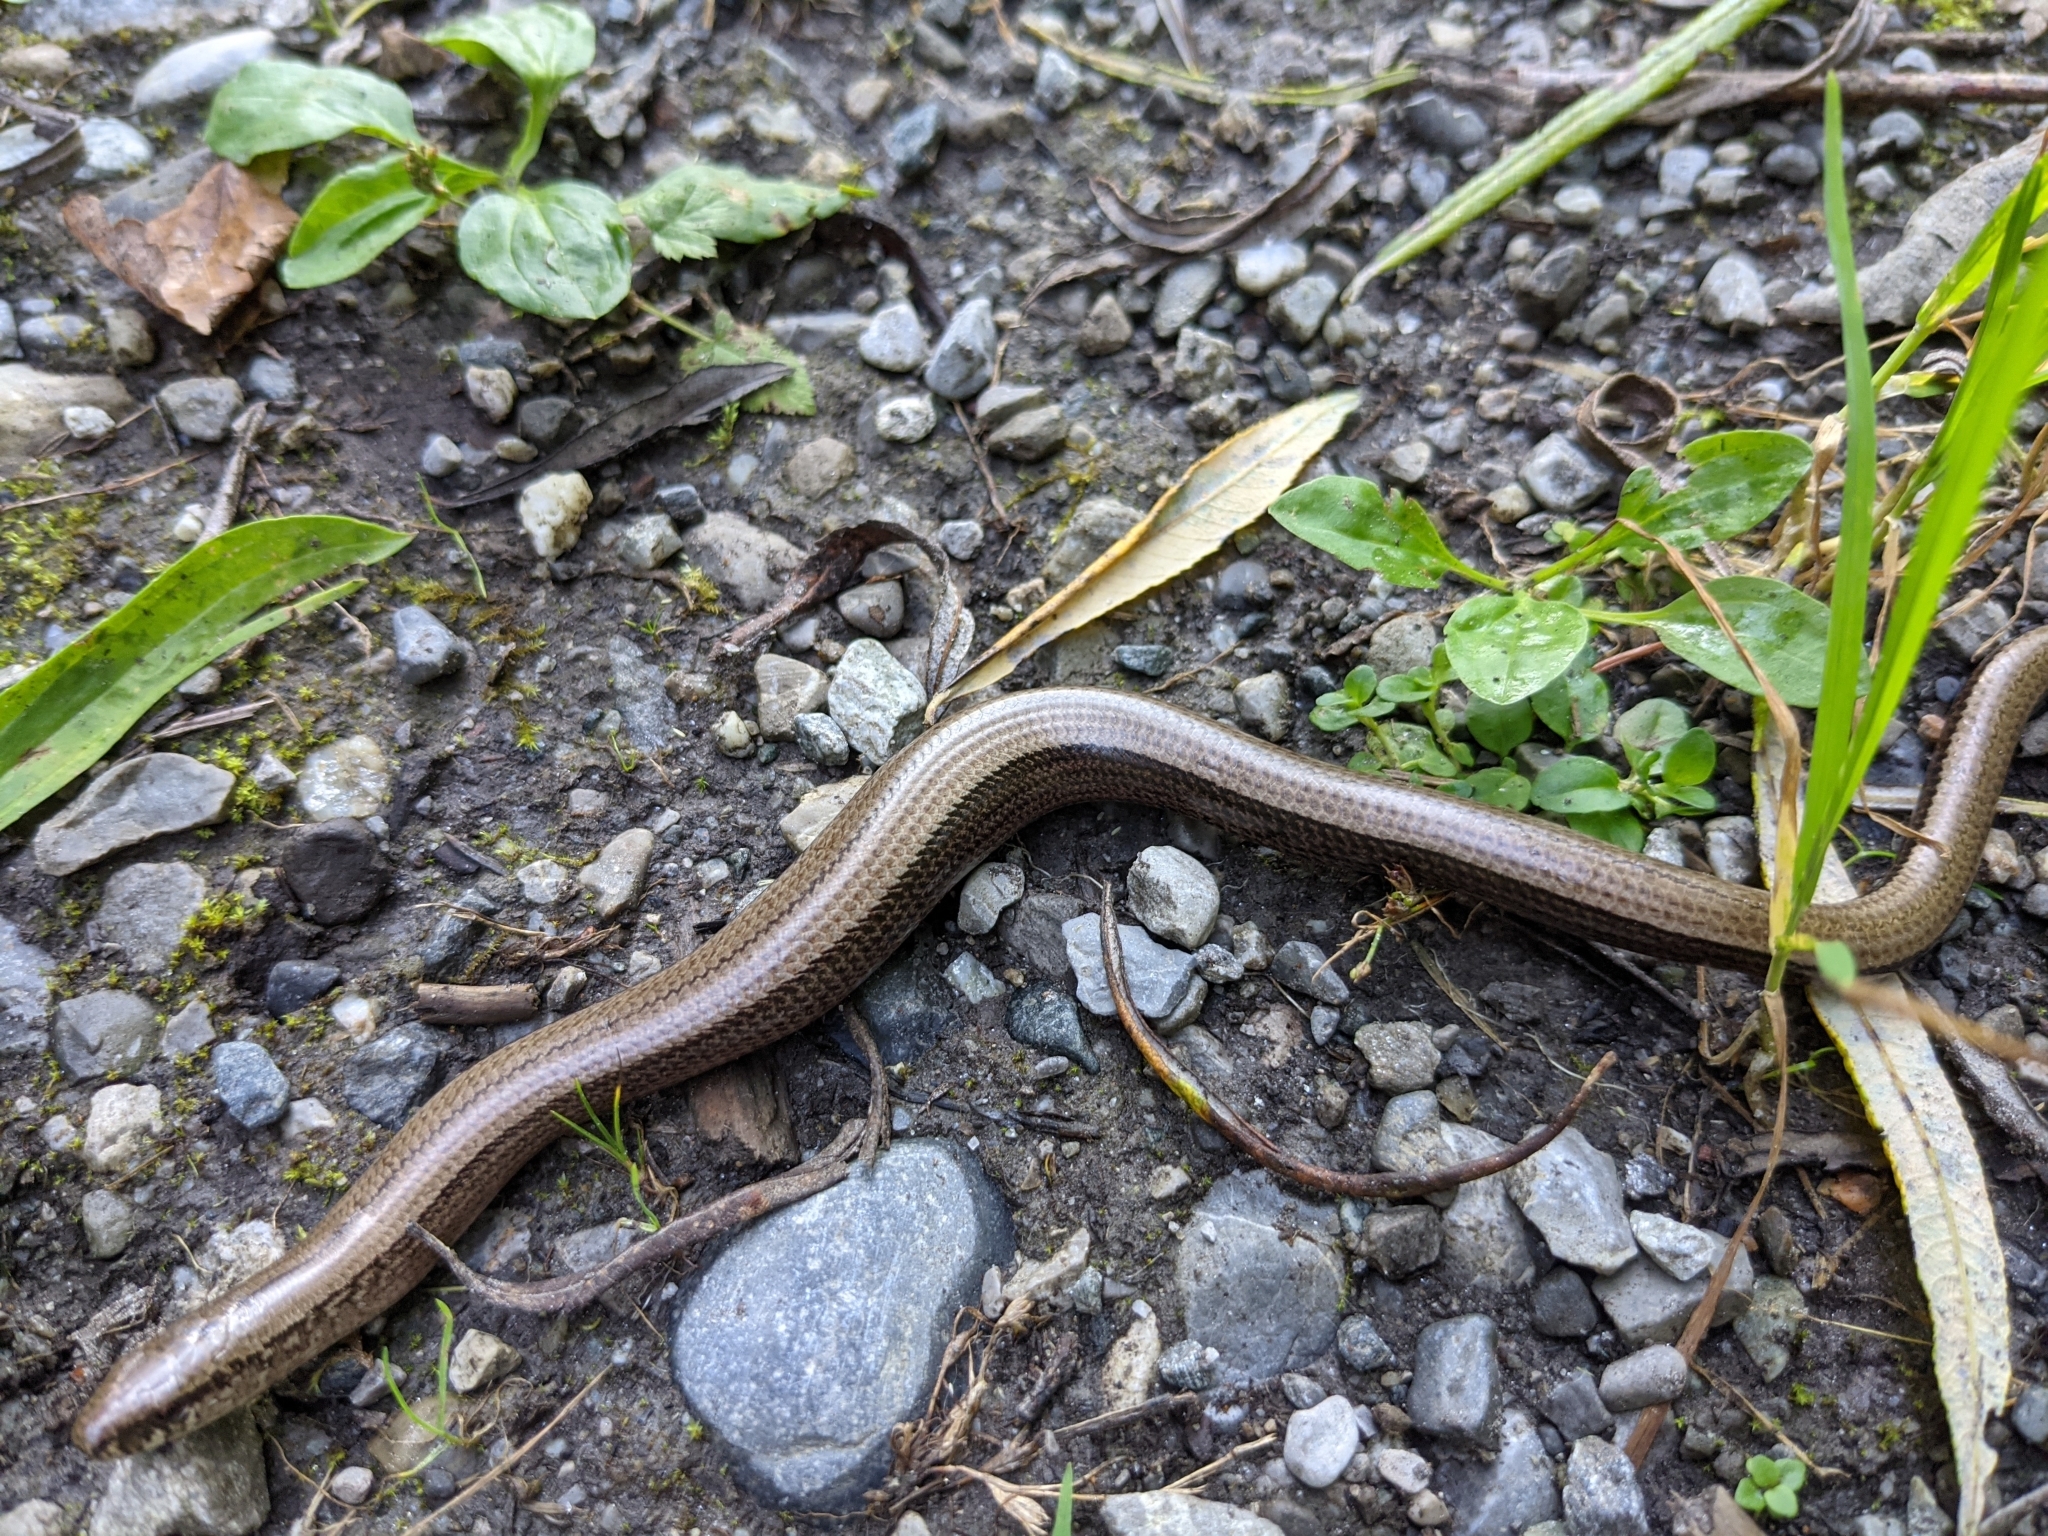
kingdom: Animalia
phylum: Chordata
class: Squamata
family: Anguidae
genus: Anguis
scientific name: Anguis fragilis
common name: Slow worm
